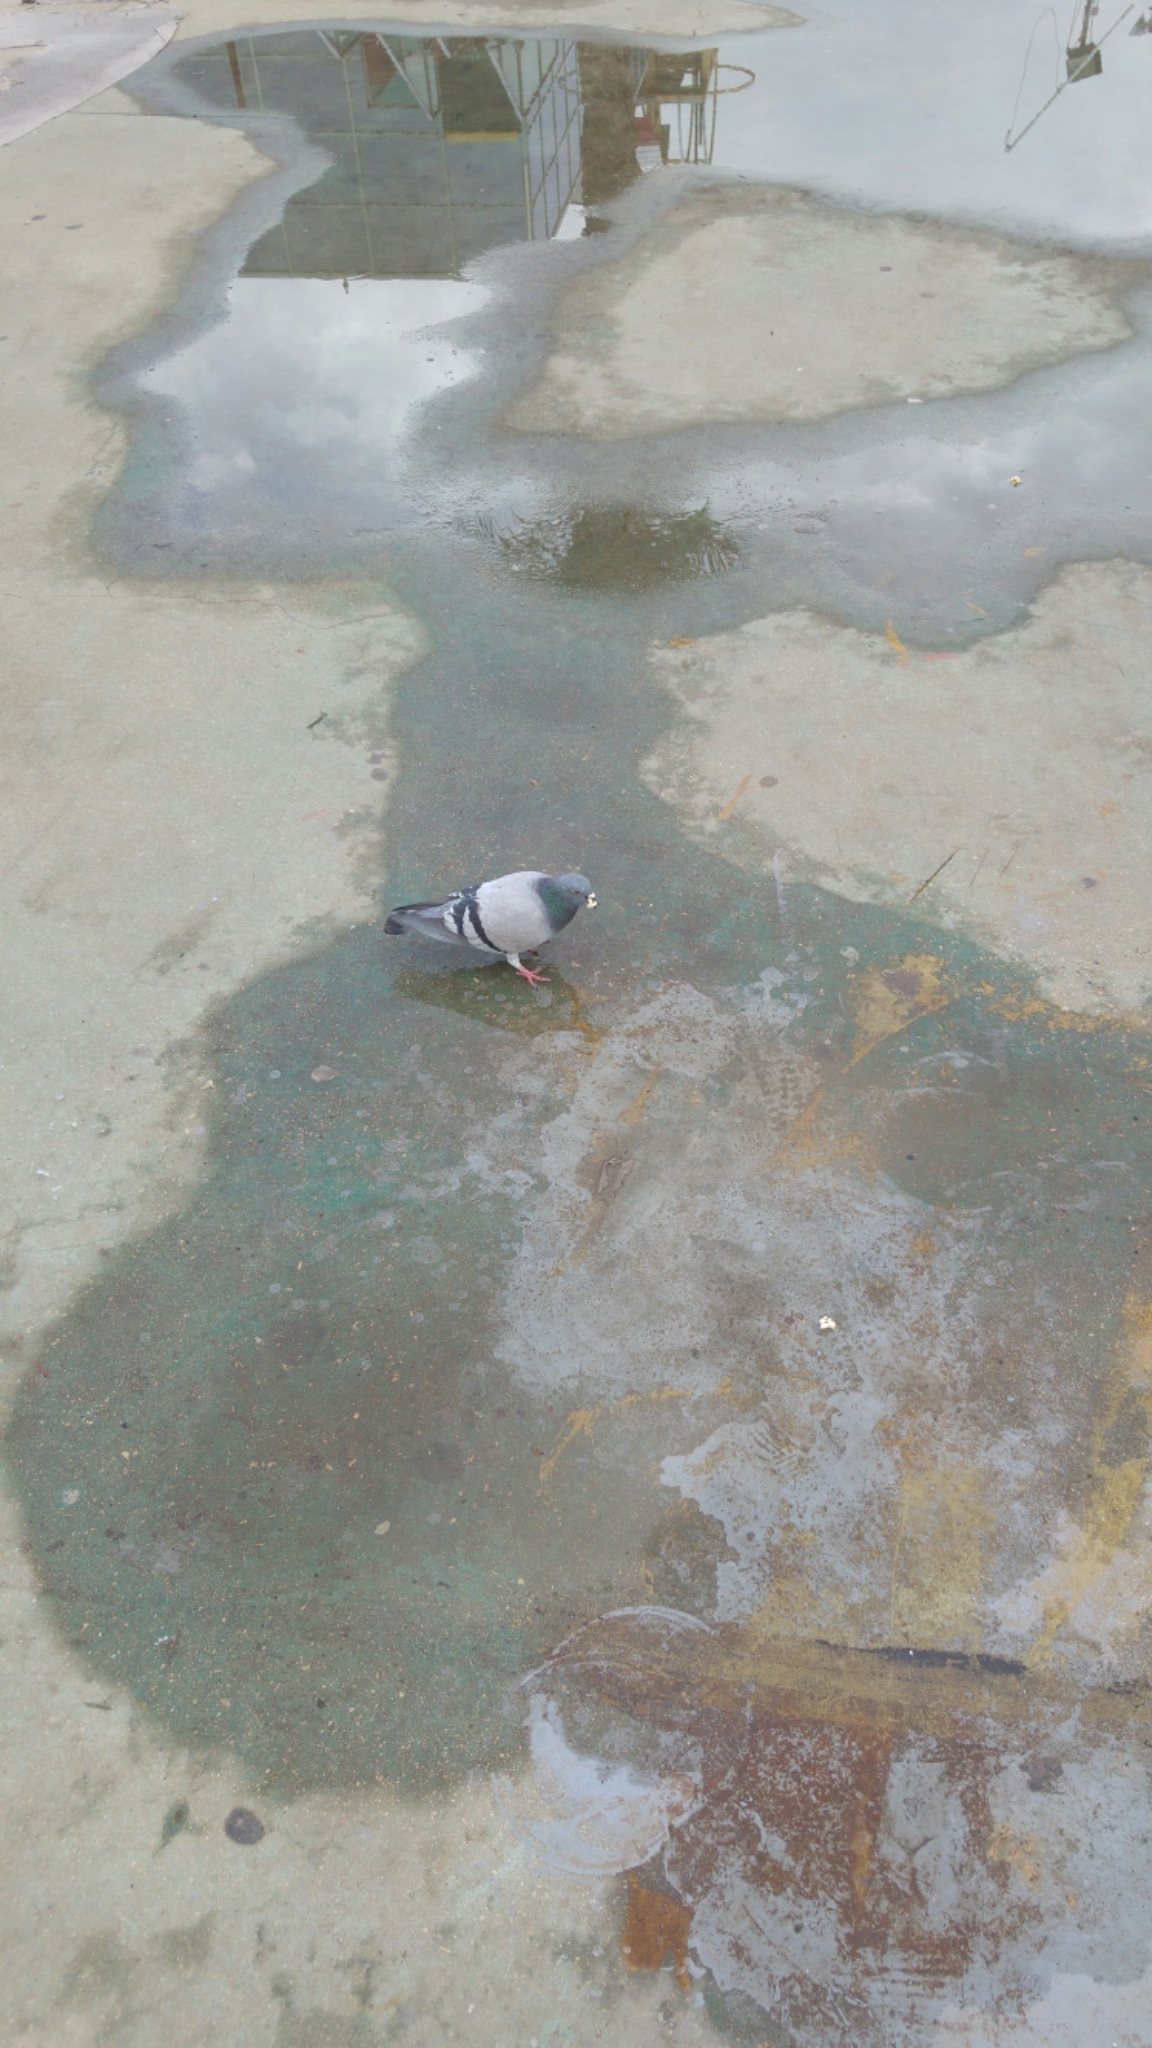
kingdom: Animalia
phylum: Chordata
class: Aves
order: Columbiformes
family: Columbidae
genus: Columba
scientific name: Columba livia
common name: Rock pigeon
